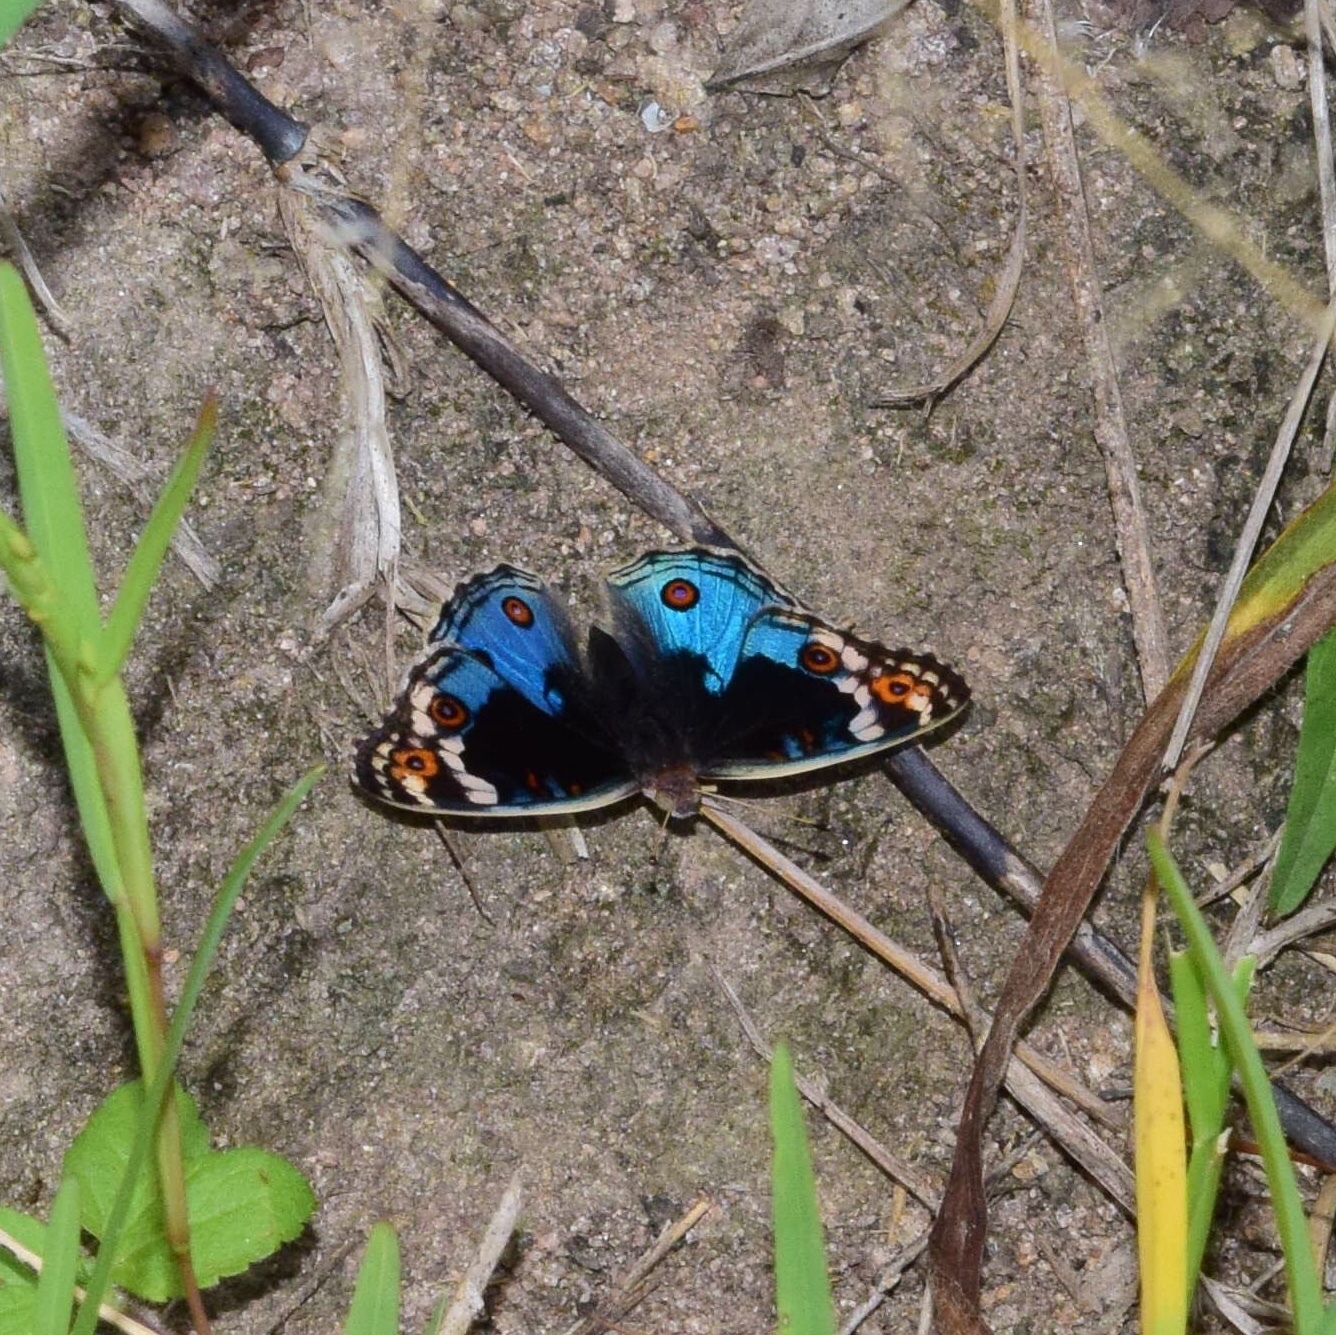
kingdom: Animalia
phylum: Arthropoda
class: Insecta
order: Lepidoptera
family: Nymphalidae
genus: Junonia
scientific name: Junonia orithya
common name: Blue pansy
